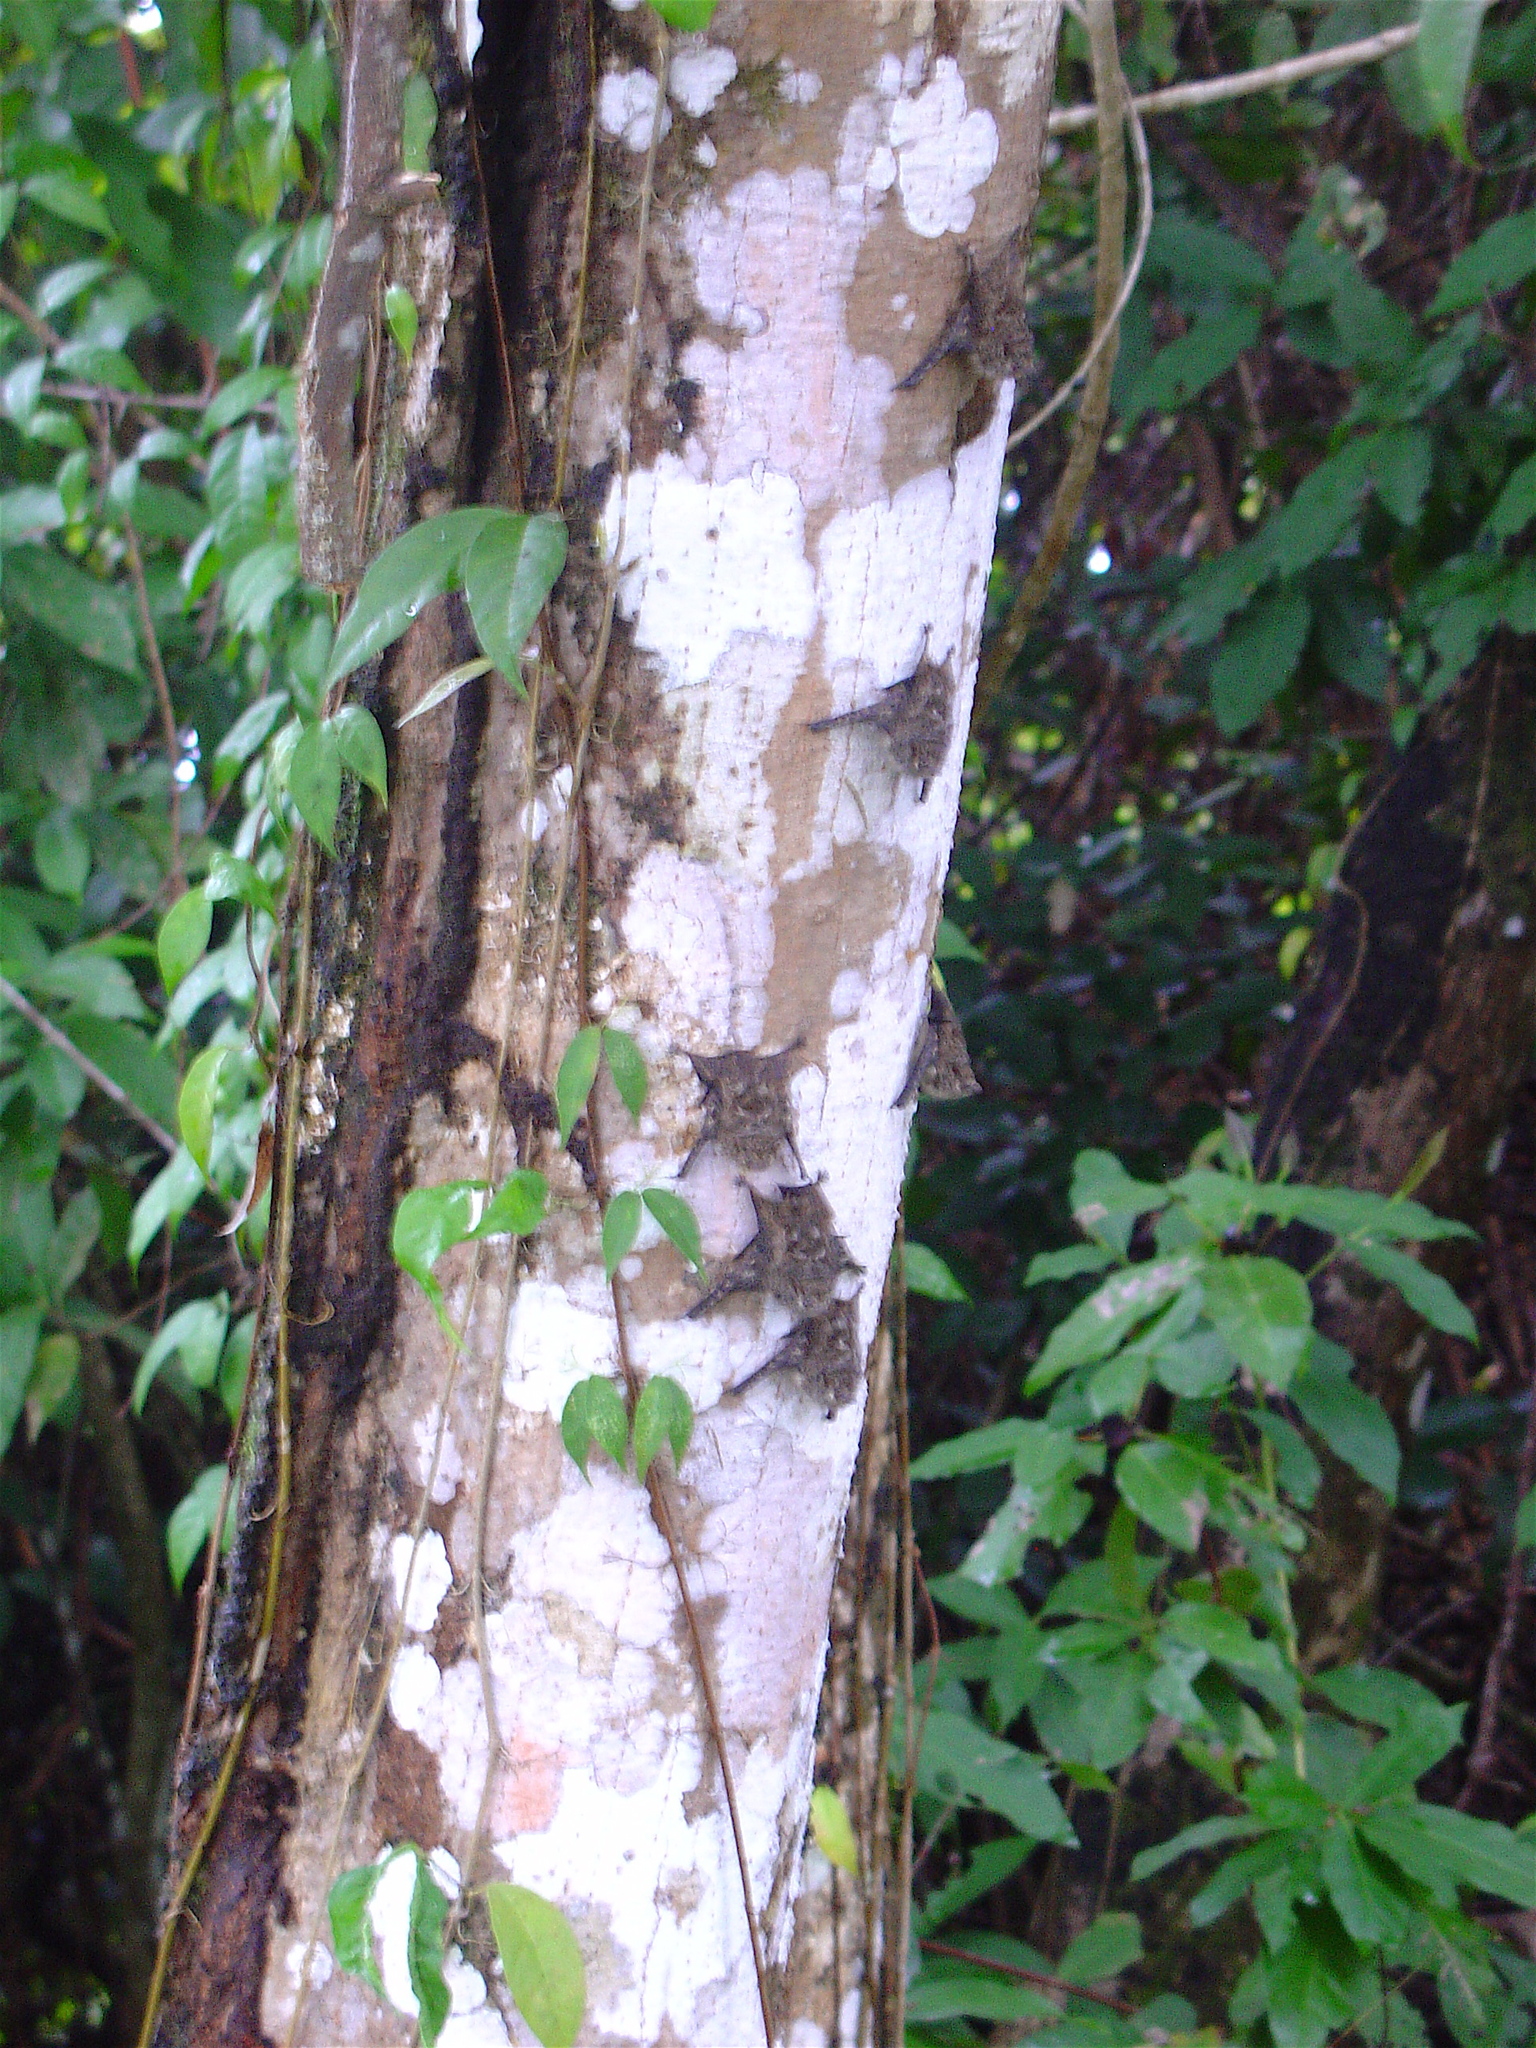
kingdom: Animalia
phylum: Chordata
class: Mammalia
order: Chiroptera
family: Emballonuridae
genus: Rhynchonycteris
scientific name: Rhynchonycteris naso
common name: Proboscis bat
